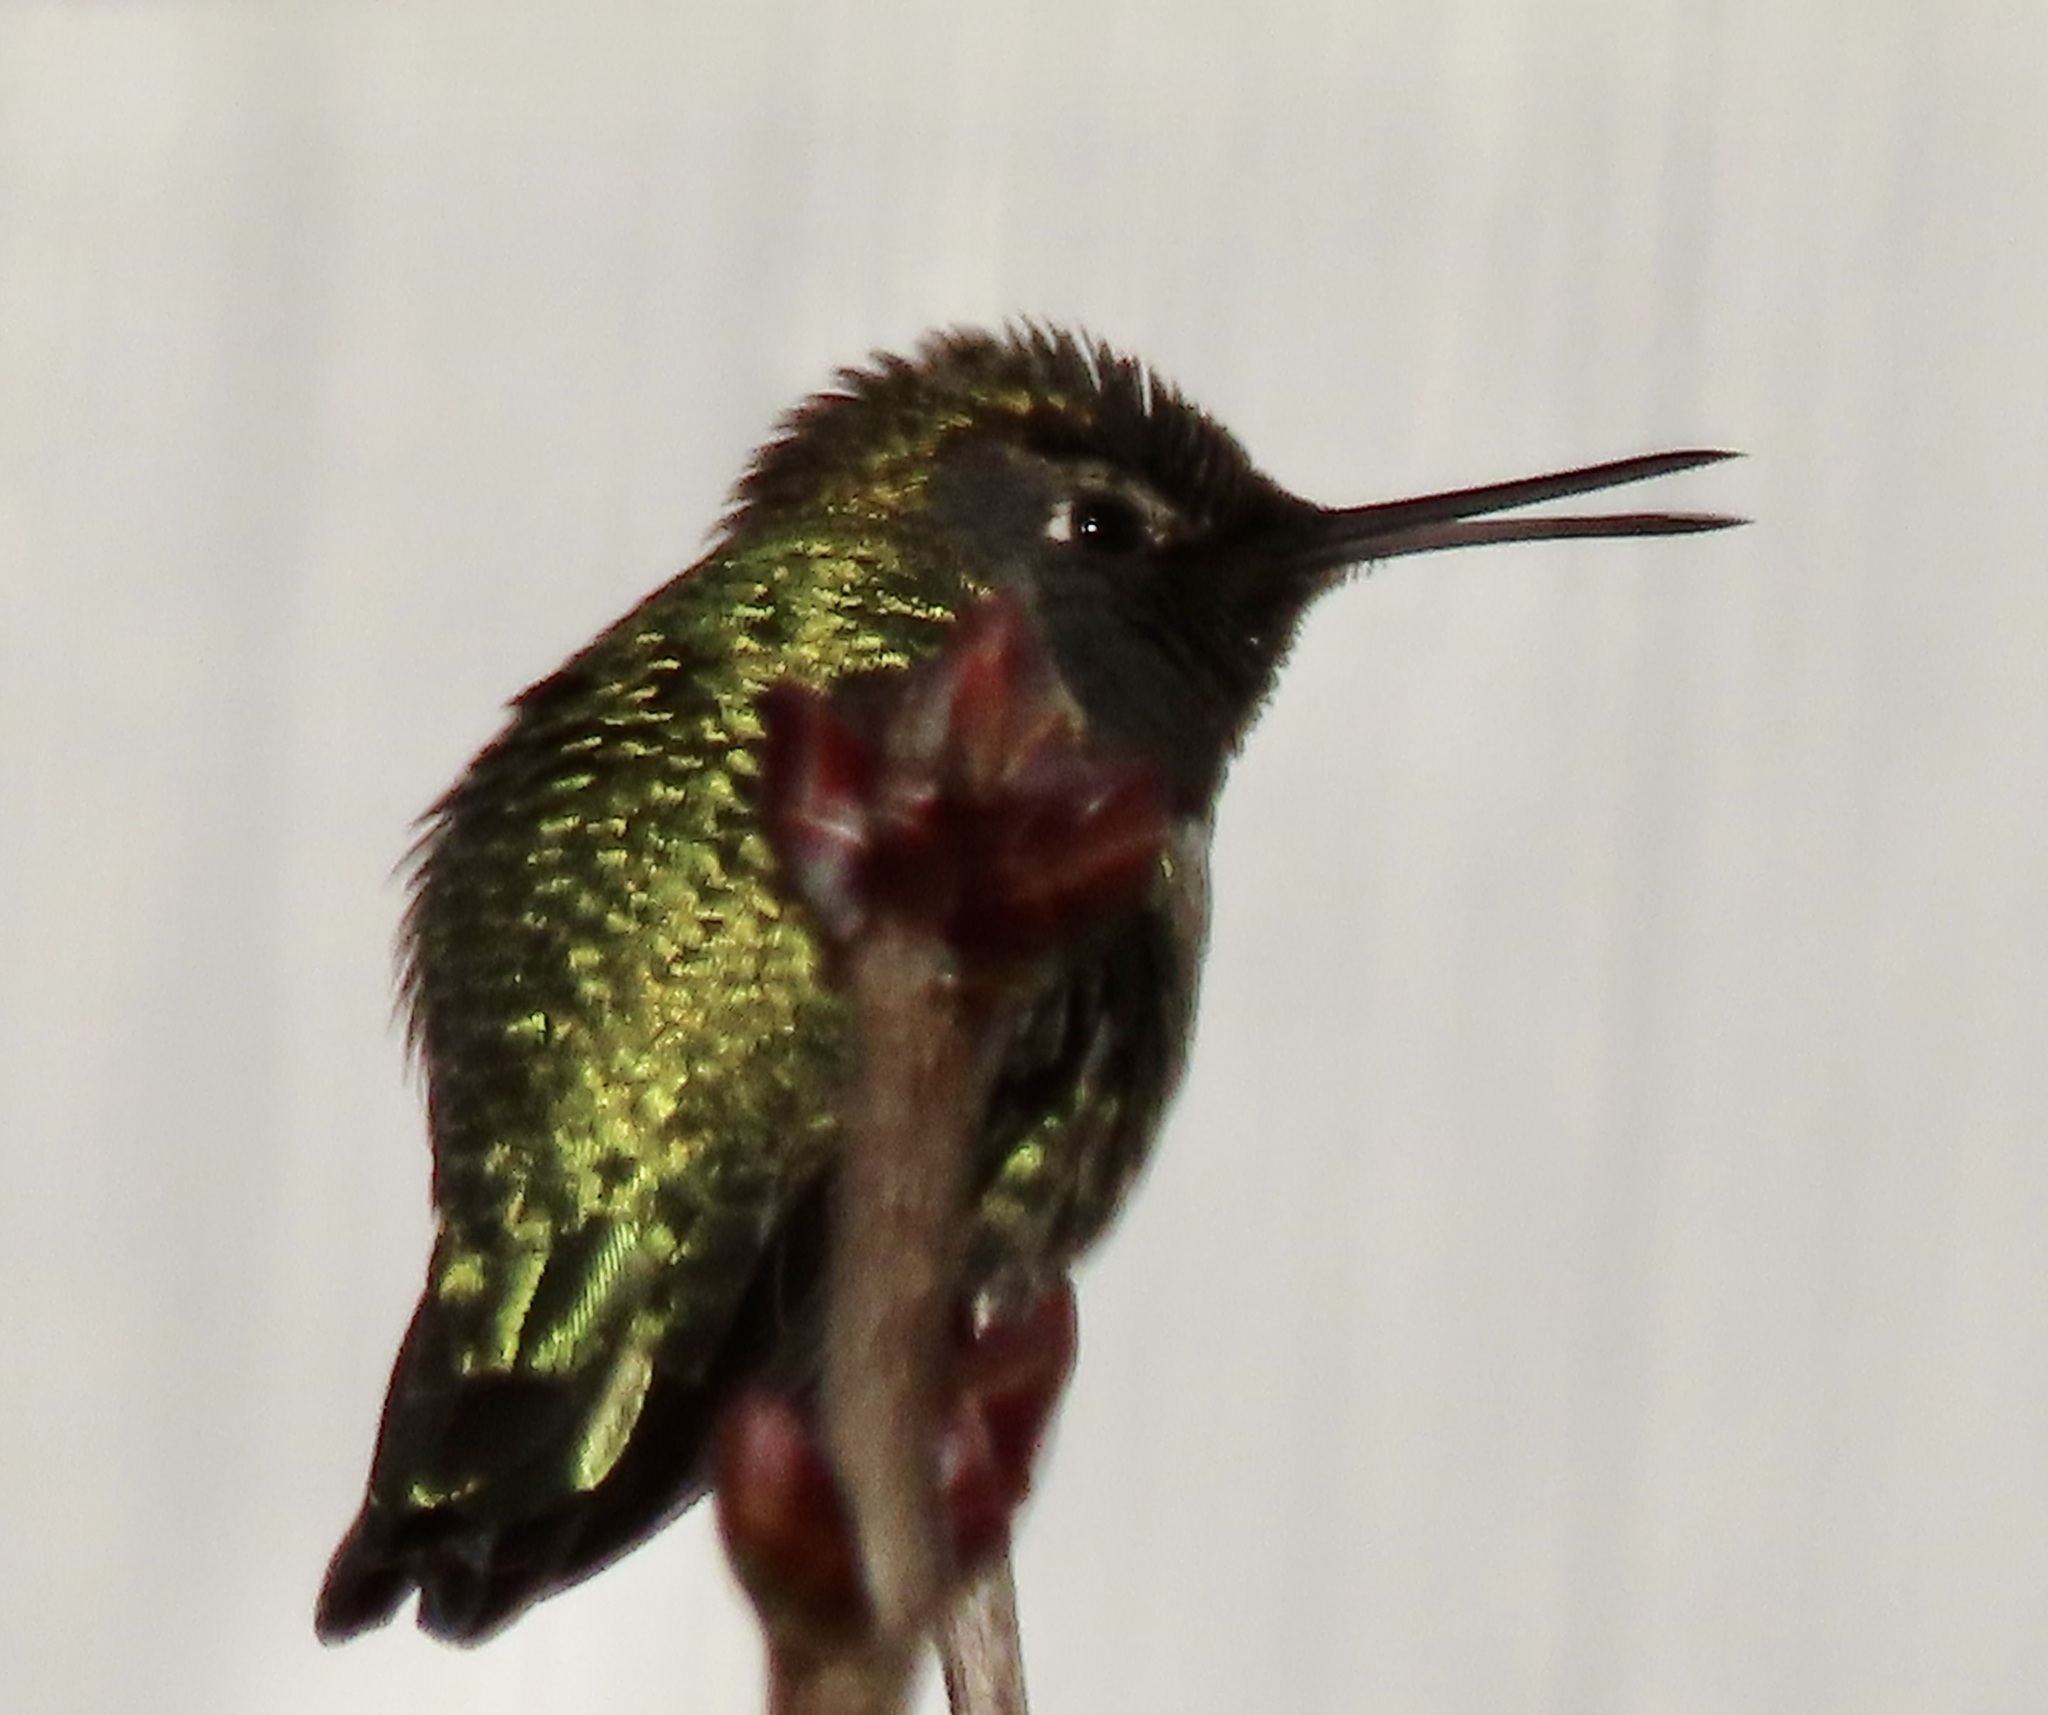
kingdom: Animalia
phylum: Chordata
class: Aves
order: Apodiformes
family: Trochilidae
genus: Calypte
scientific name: Calypte anna
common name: Anna's hummingbird
